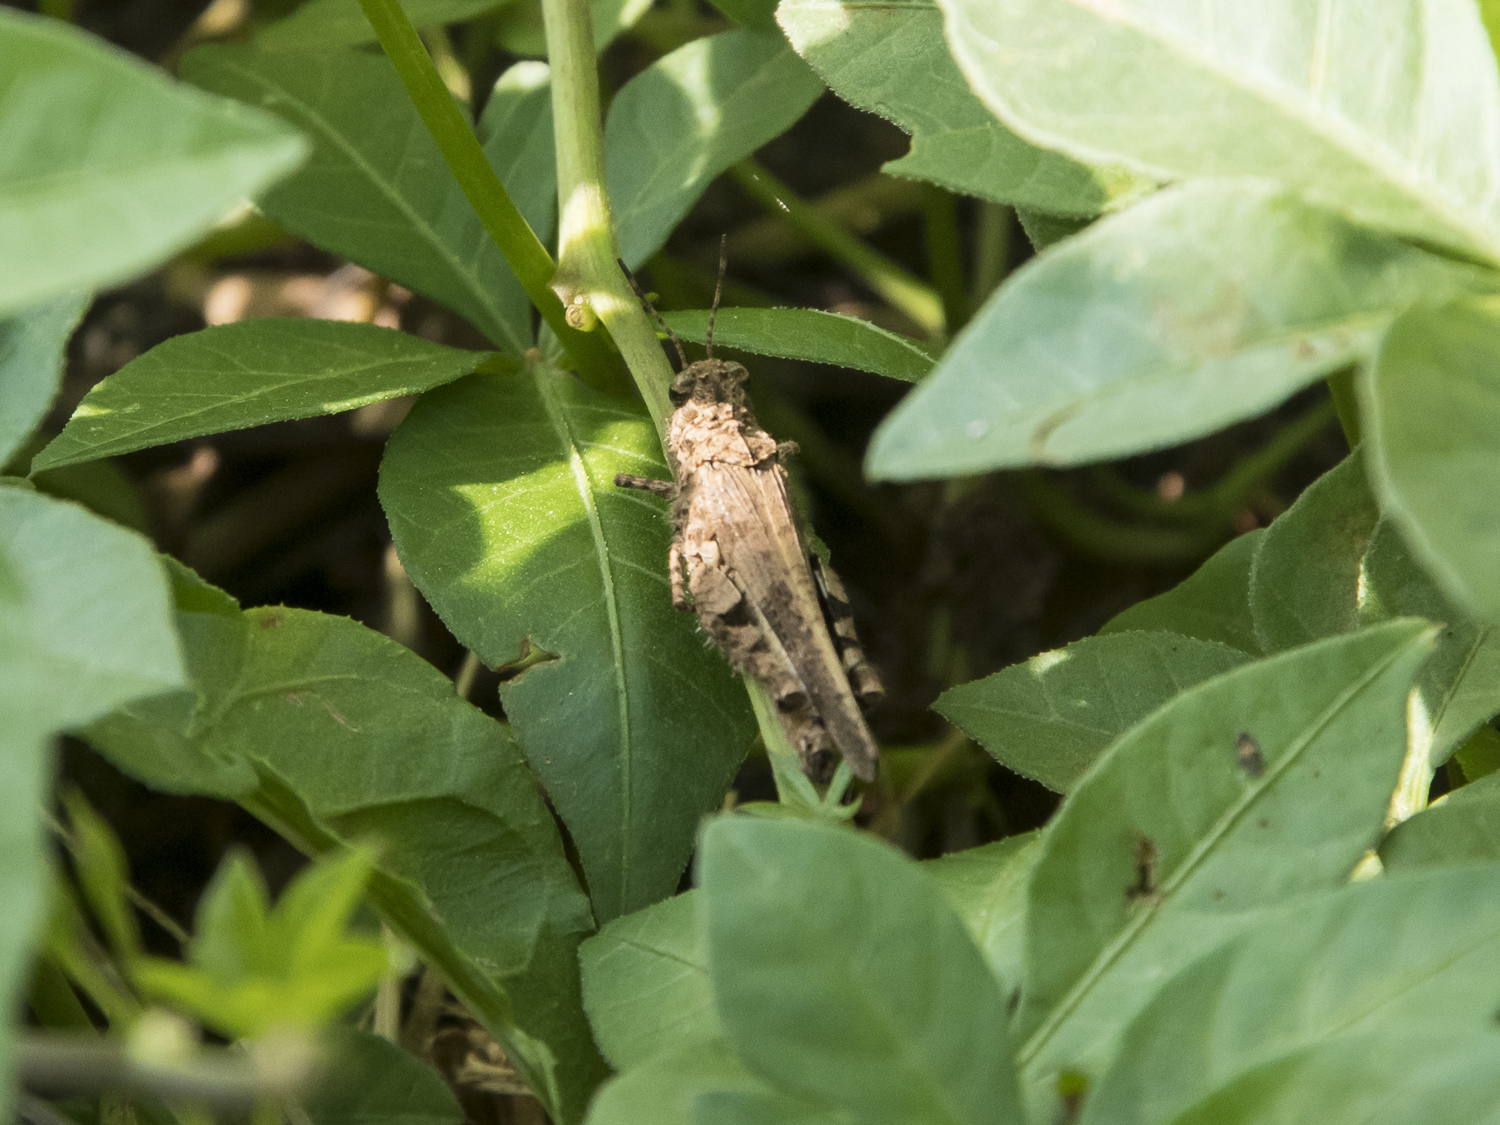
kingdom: Animalia
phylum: Arthropoda
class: Insecta
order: Orthoptera
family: Acrididae
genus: Trilophidia
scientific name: Trilophidia annulata
